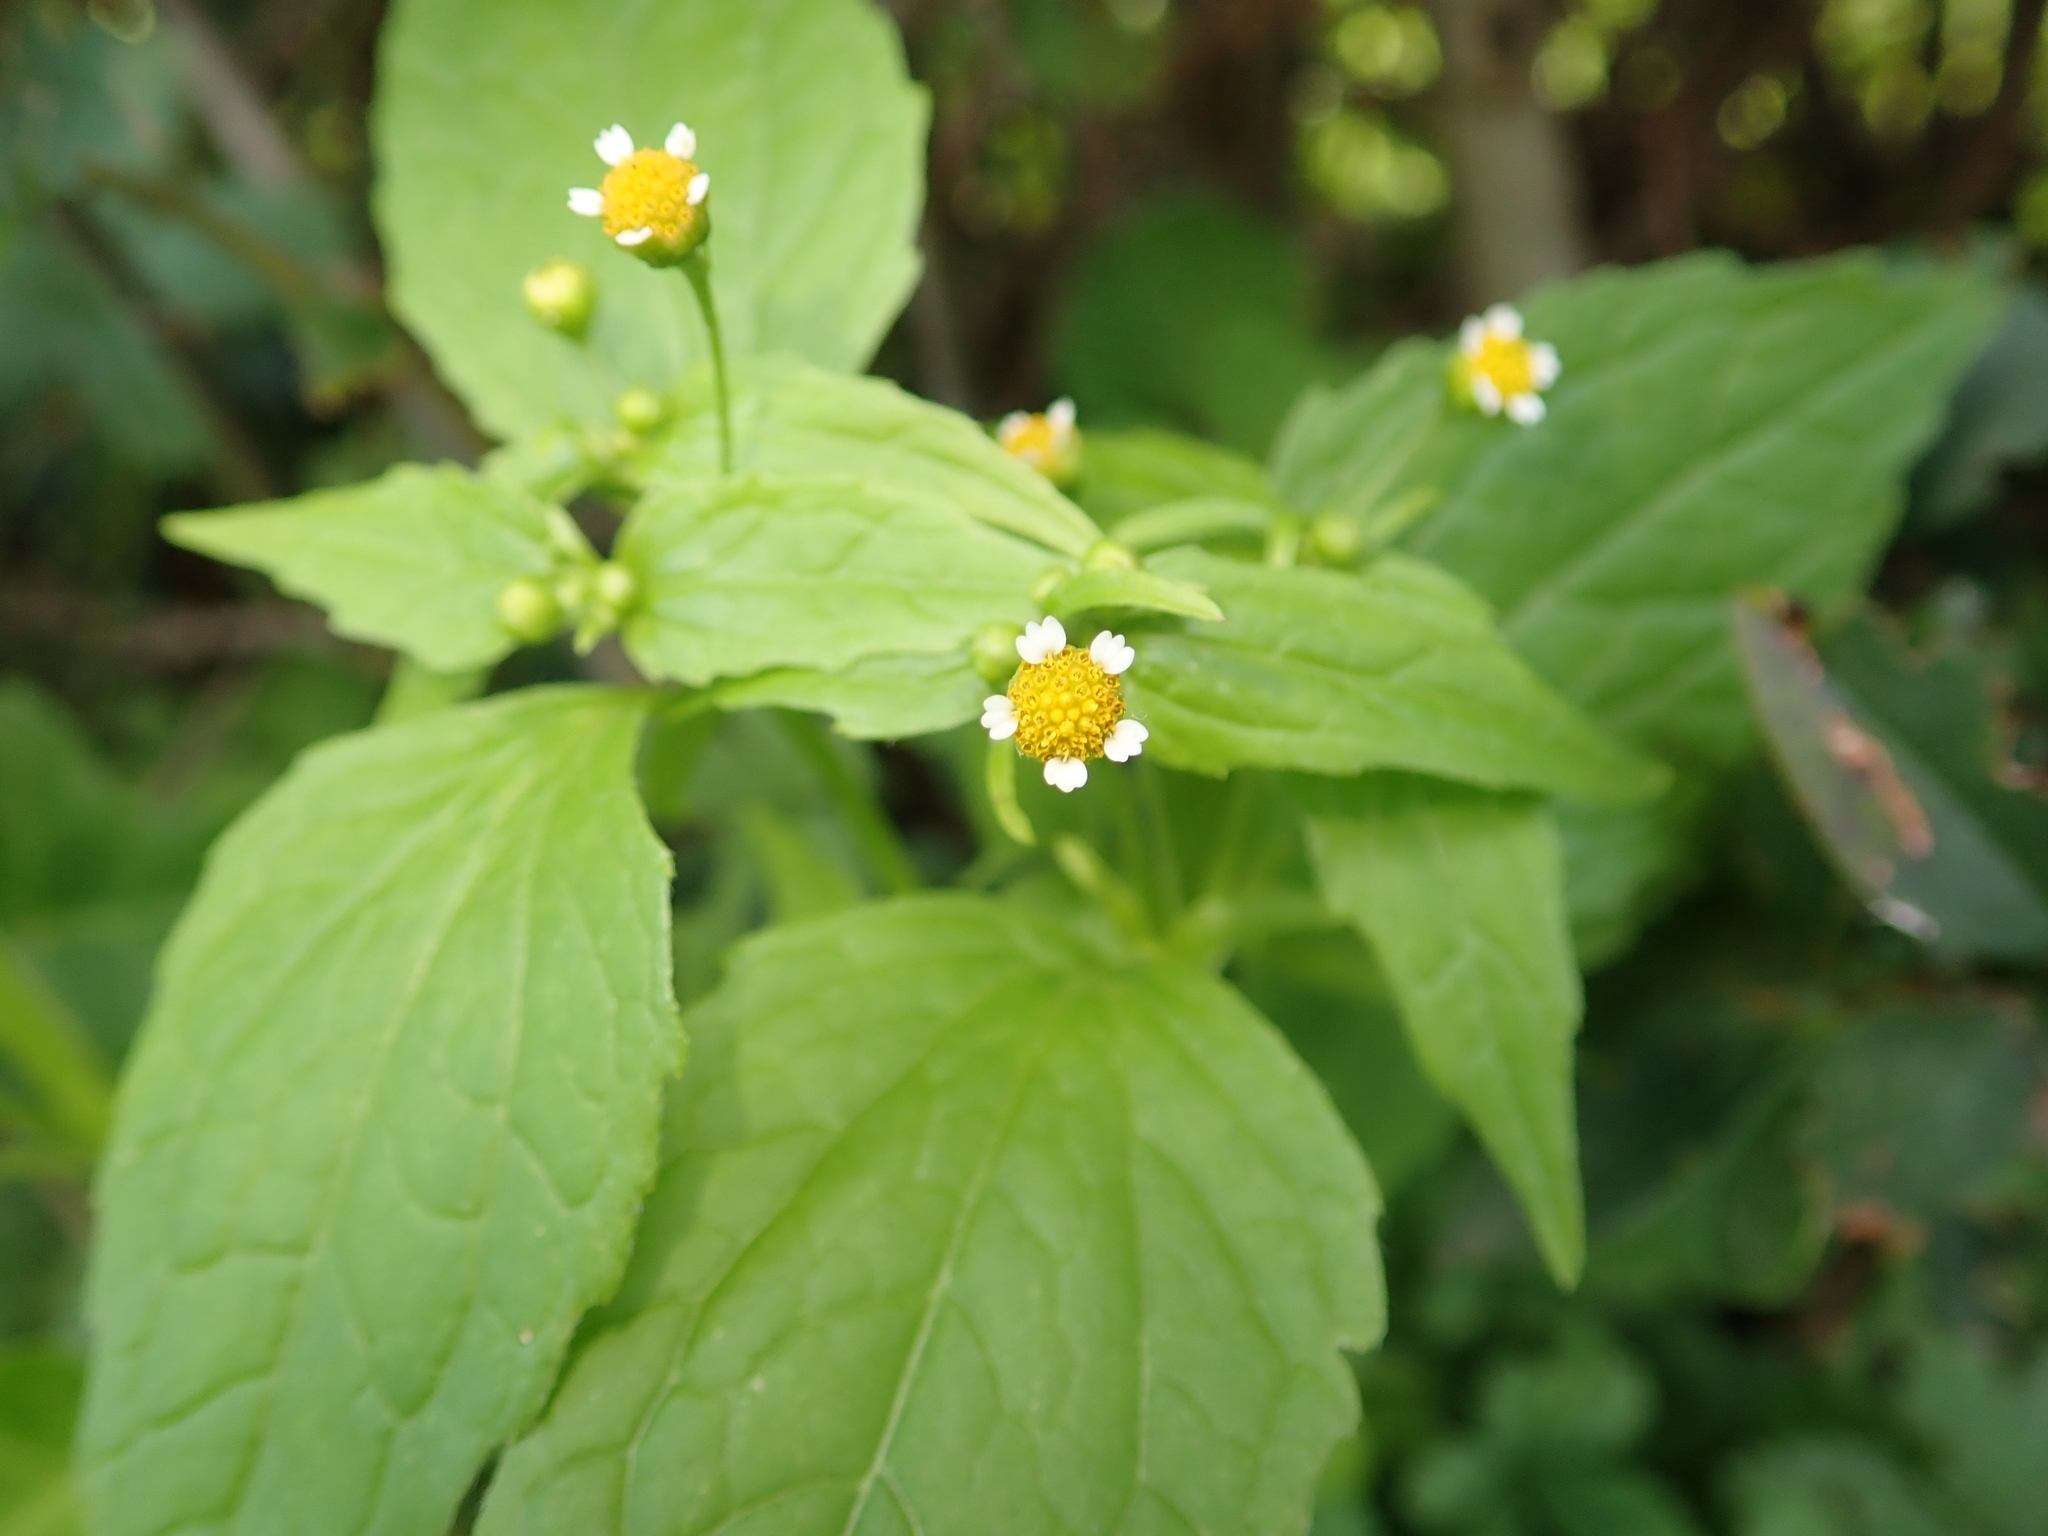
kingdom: Plantae
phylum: Tracheophyta
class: Magnoliopsida
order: Asterales
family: Asteraceae
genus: Galinsoga
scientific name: Galinsoga parviflora
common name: Gallant soldier
